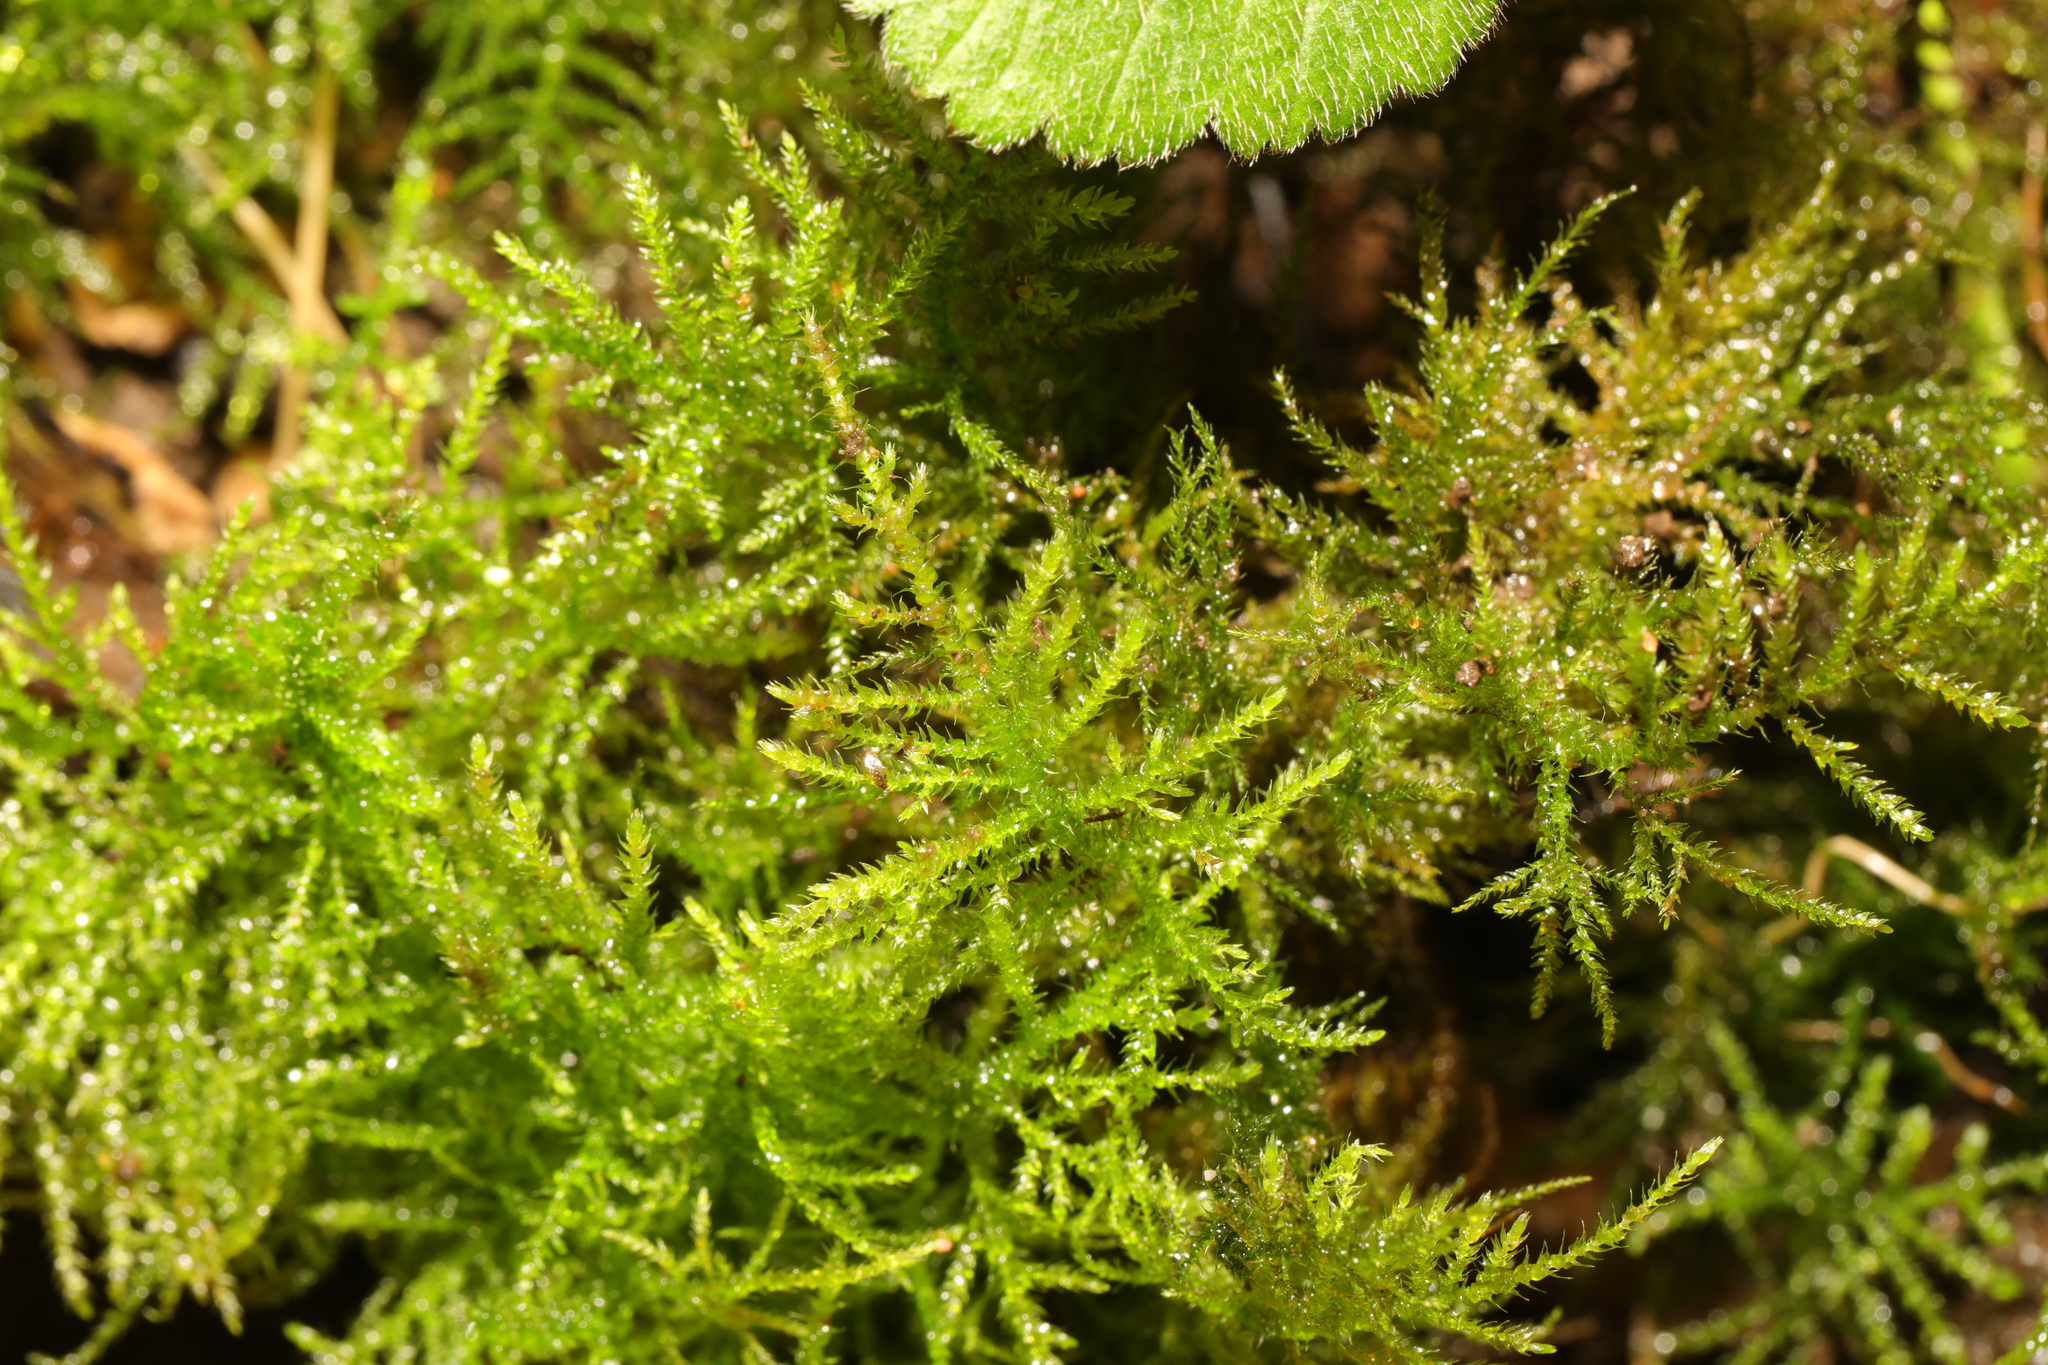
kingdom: Plantae
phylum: Bryophyta
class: Bryopsida
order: Hypnales
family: Brachytheciaceae
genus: Kindbergia
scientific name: Kindbergia praelonga
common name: Slender beaked moss
